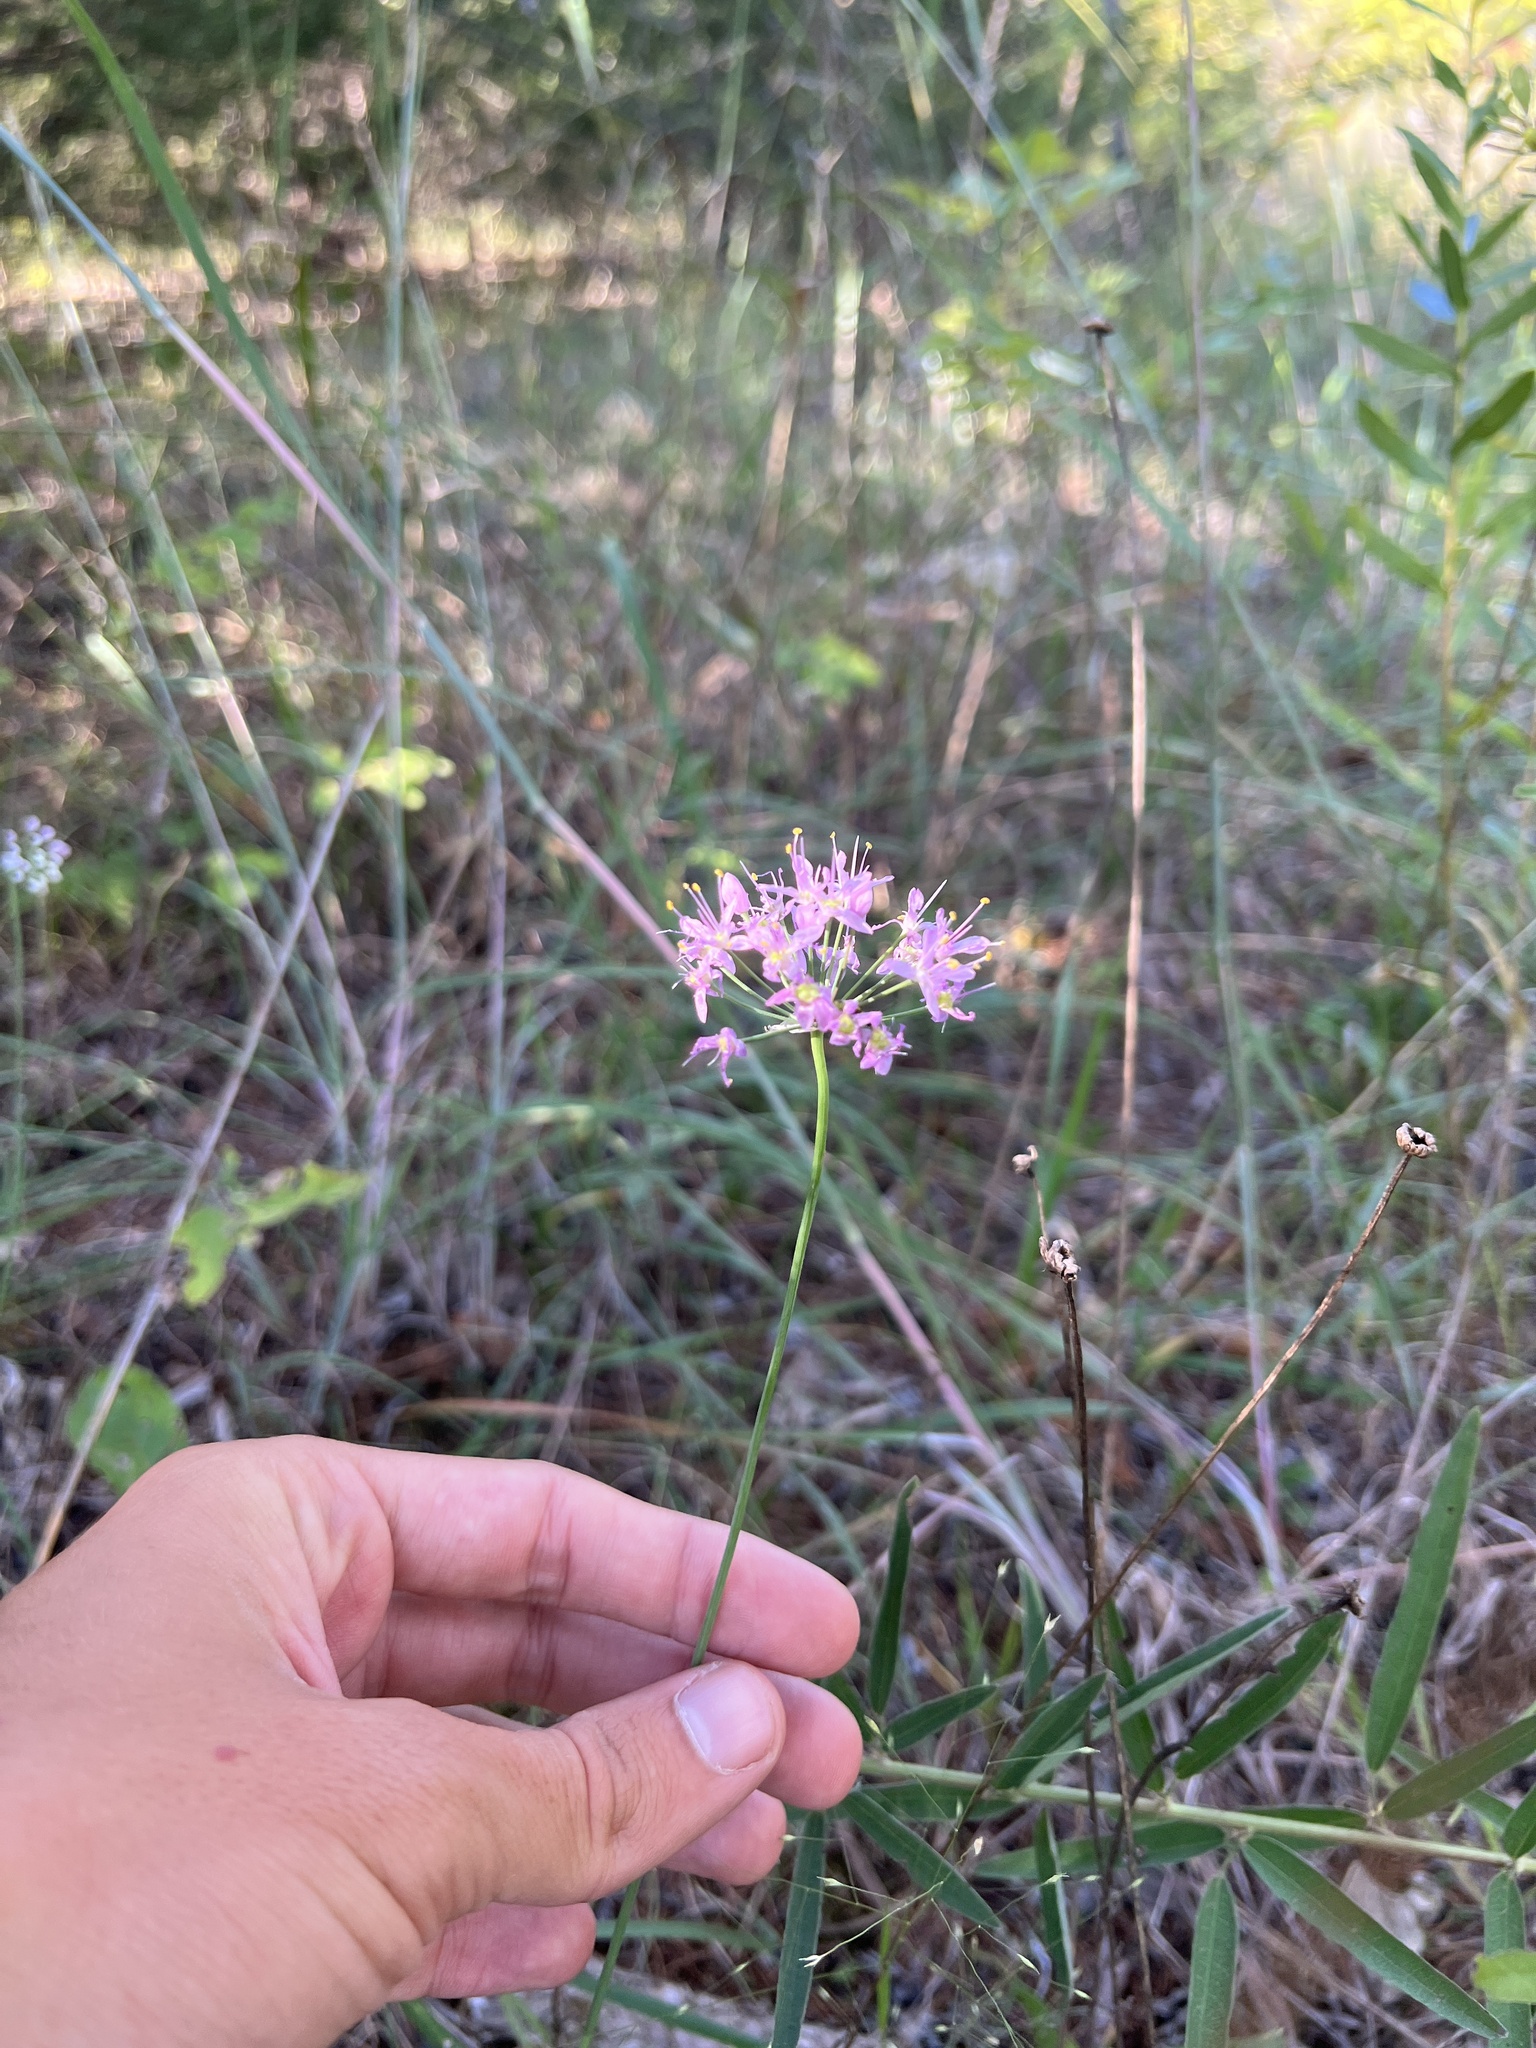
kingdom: Plantae
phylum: Tracheophyta
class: Liliopsida
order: Asparagales
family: Amaryllidaceae
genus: Allium
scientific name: Allium stellatum
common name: Autumn onion
